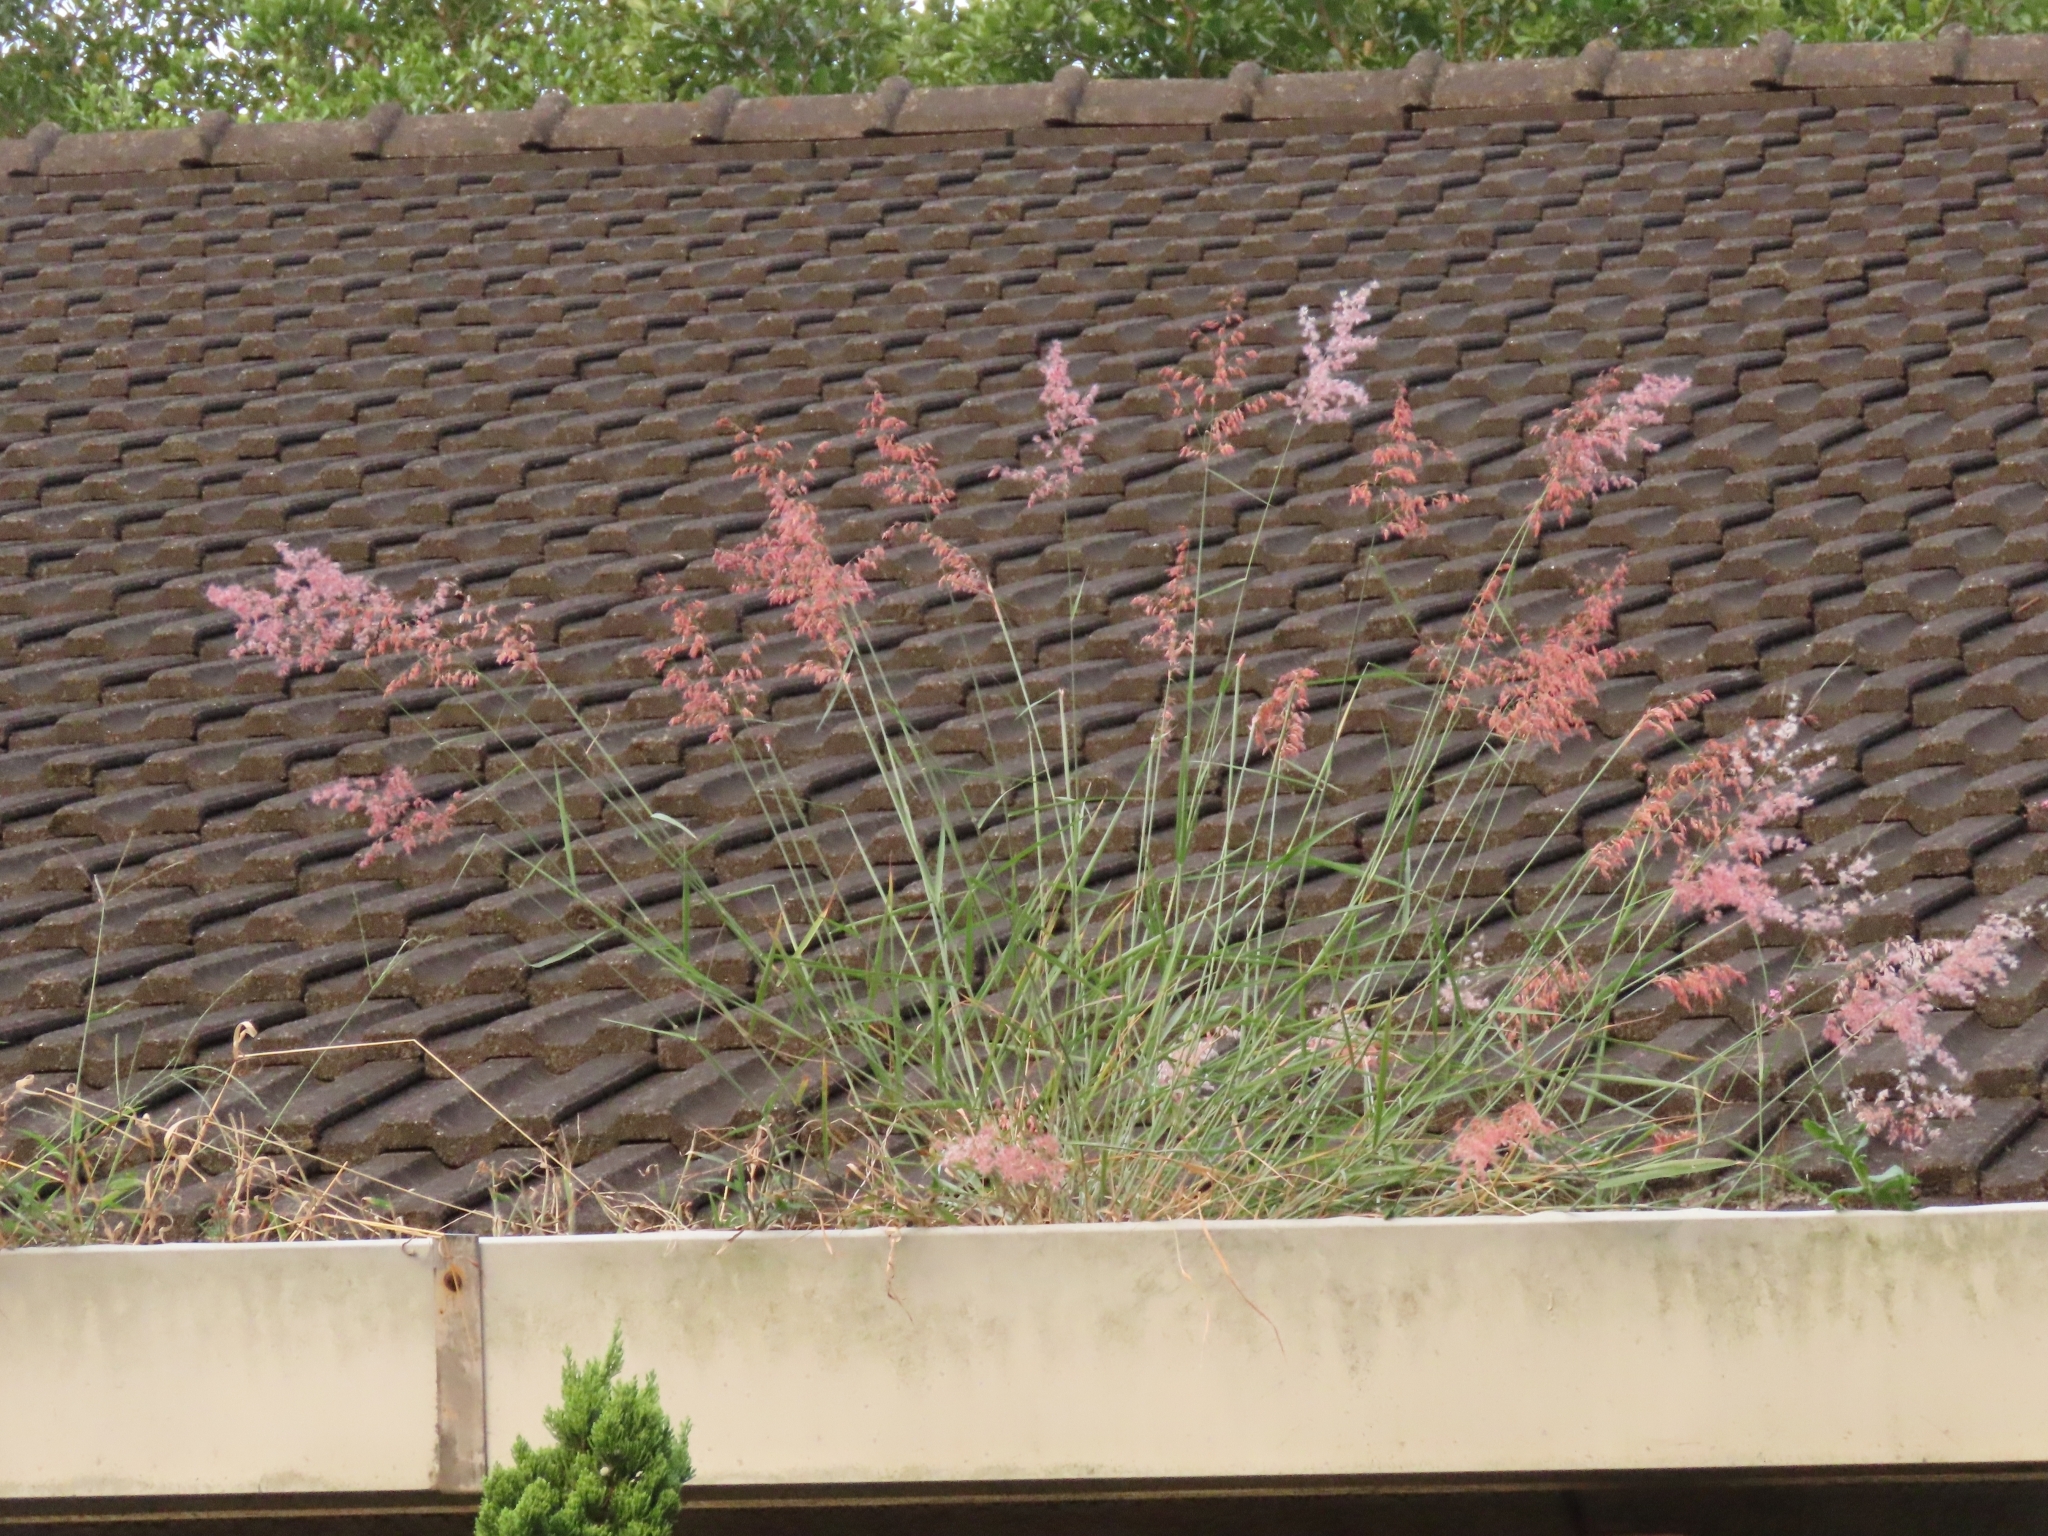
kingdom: Plantae
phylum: Tracheophyta
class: Liliopsida
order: Poales
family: Poaceae
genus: Melinis
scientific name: Melinis repens
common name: Rose natal grass
